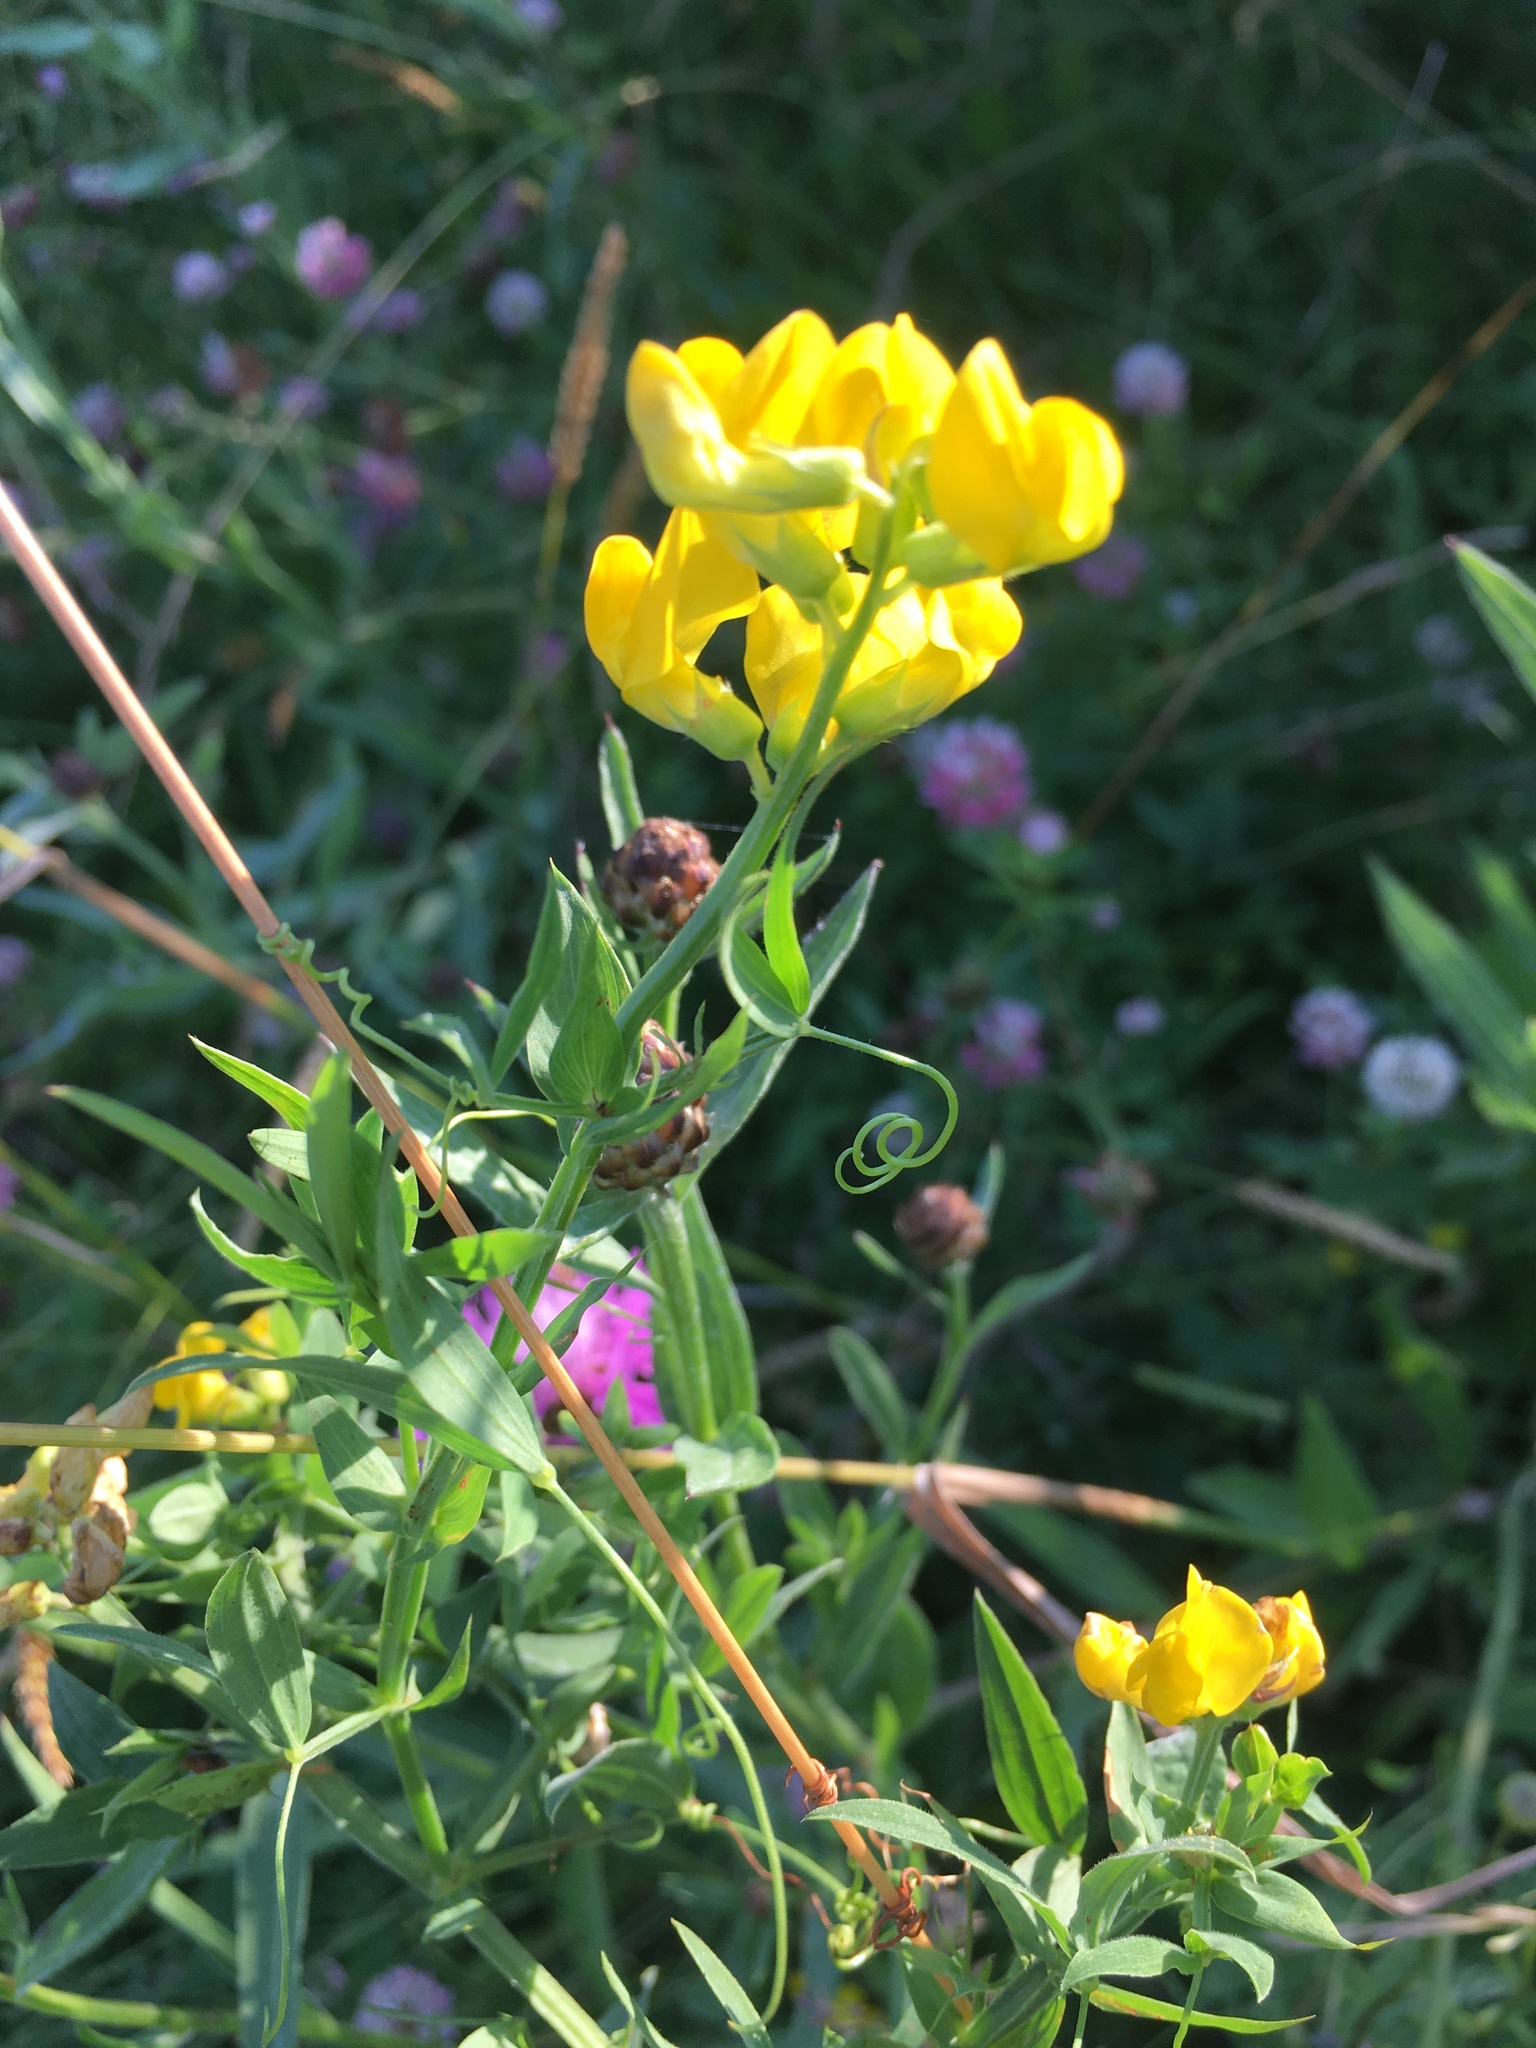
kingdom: Plantae
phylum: Tracheophyta
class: Magnoliopsida
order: Fabales
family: Fabaceae
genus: Lathyrus
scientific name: Lathyrus pratensis
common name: Meadow vetchling
